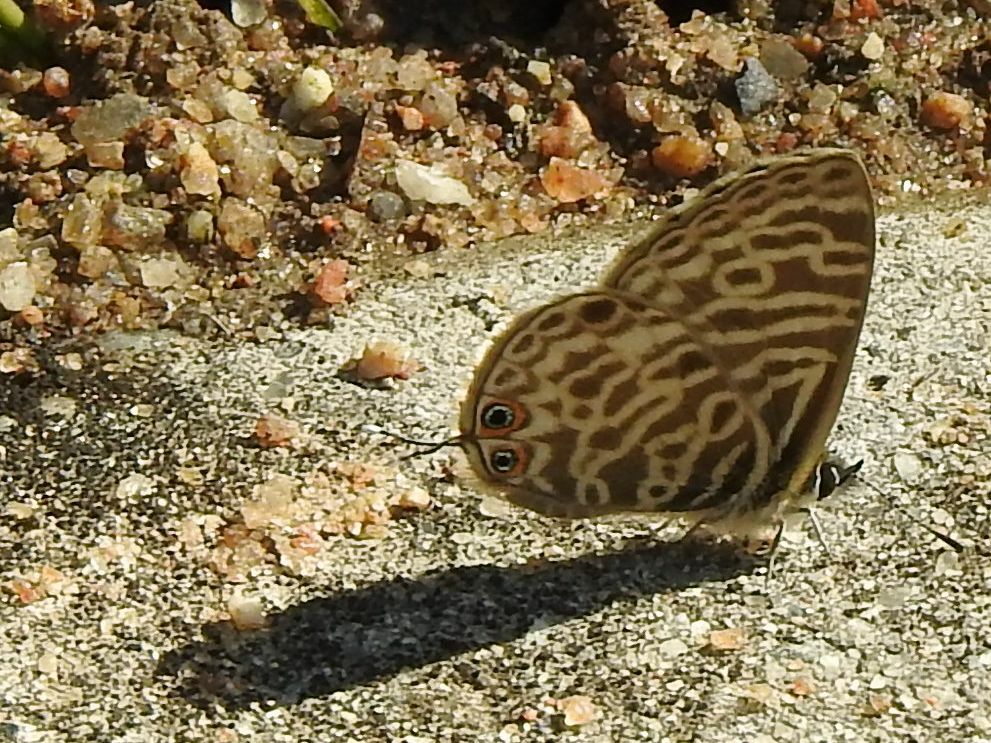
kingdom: Animalia
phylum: Arthropoda
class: Insecta
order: Lepidoptera
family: Lycaenidae
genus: Leptotes
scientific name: Leptotes
